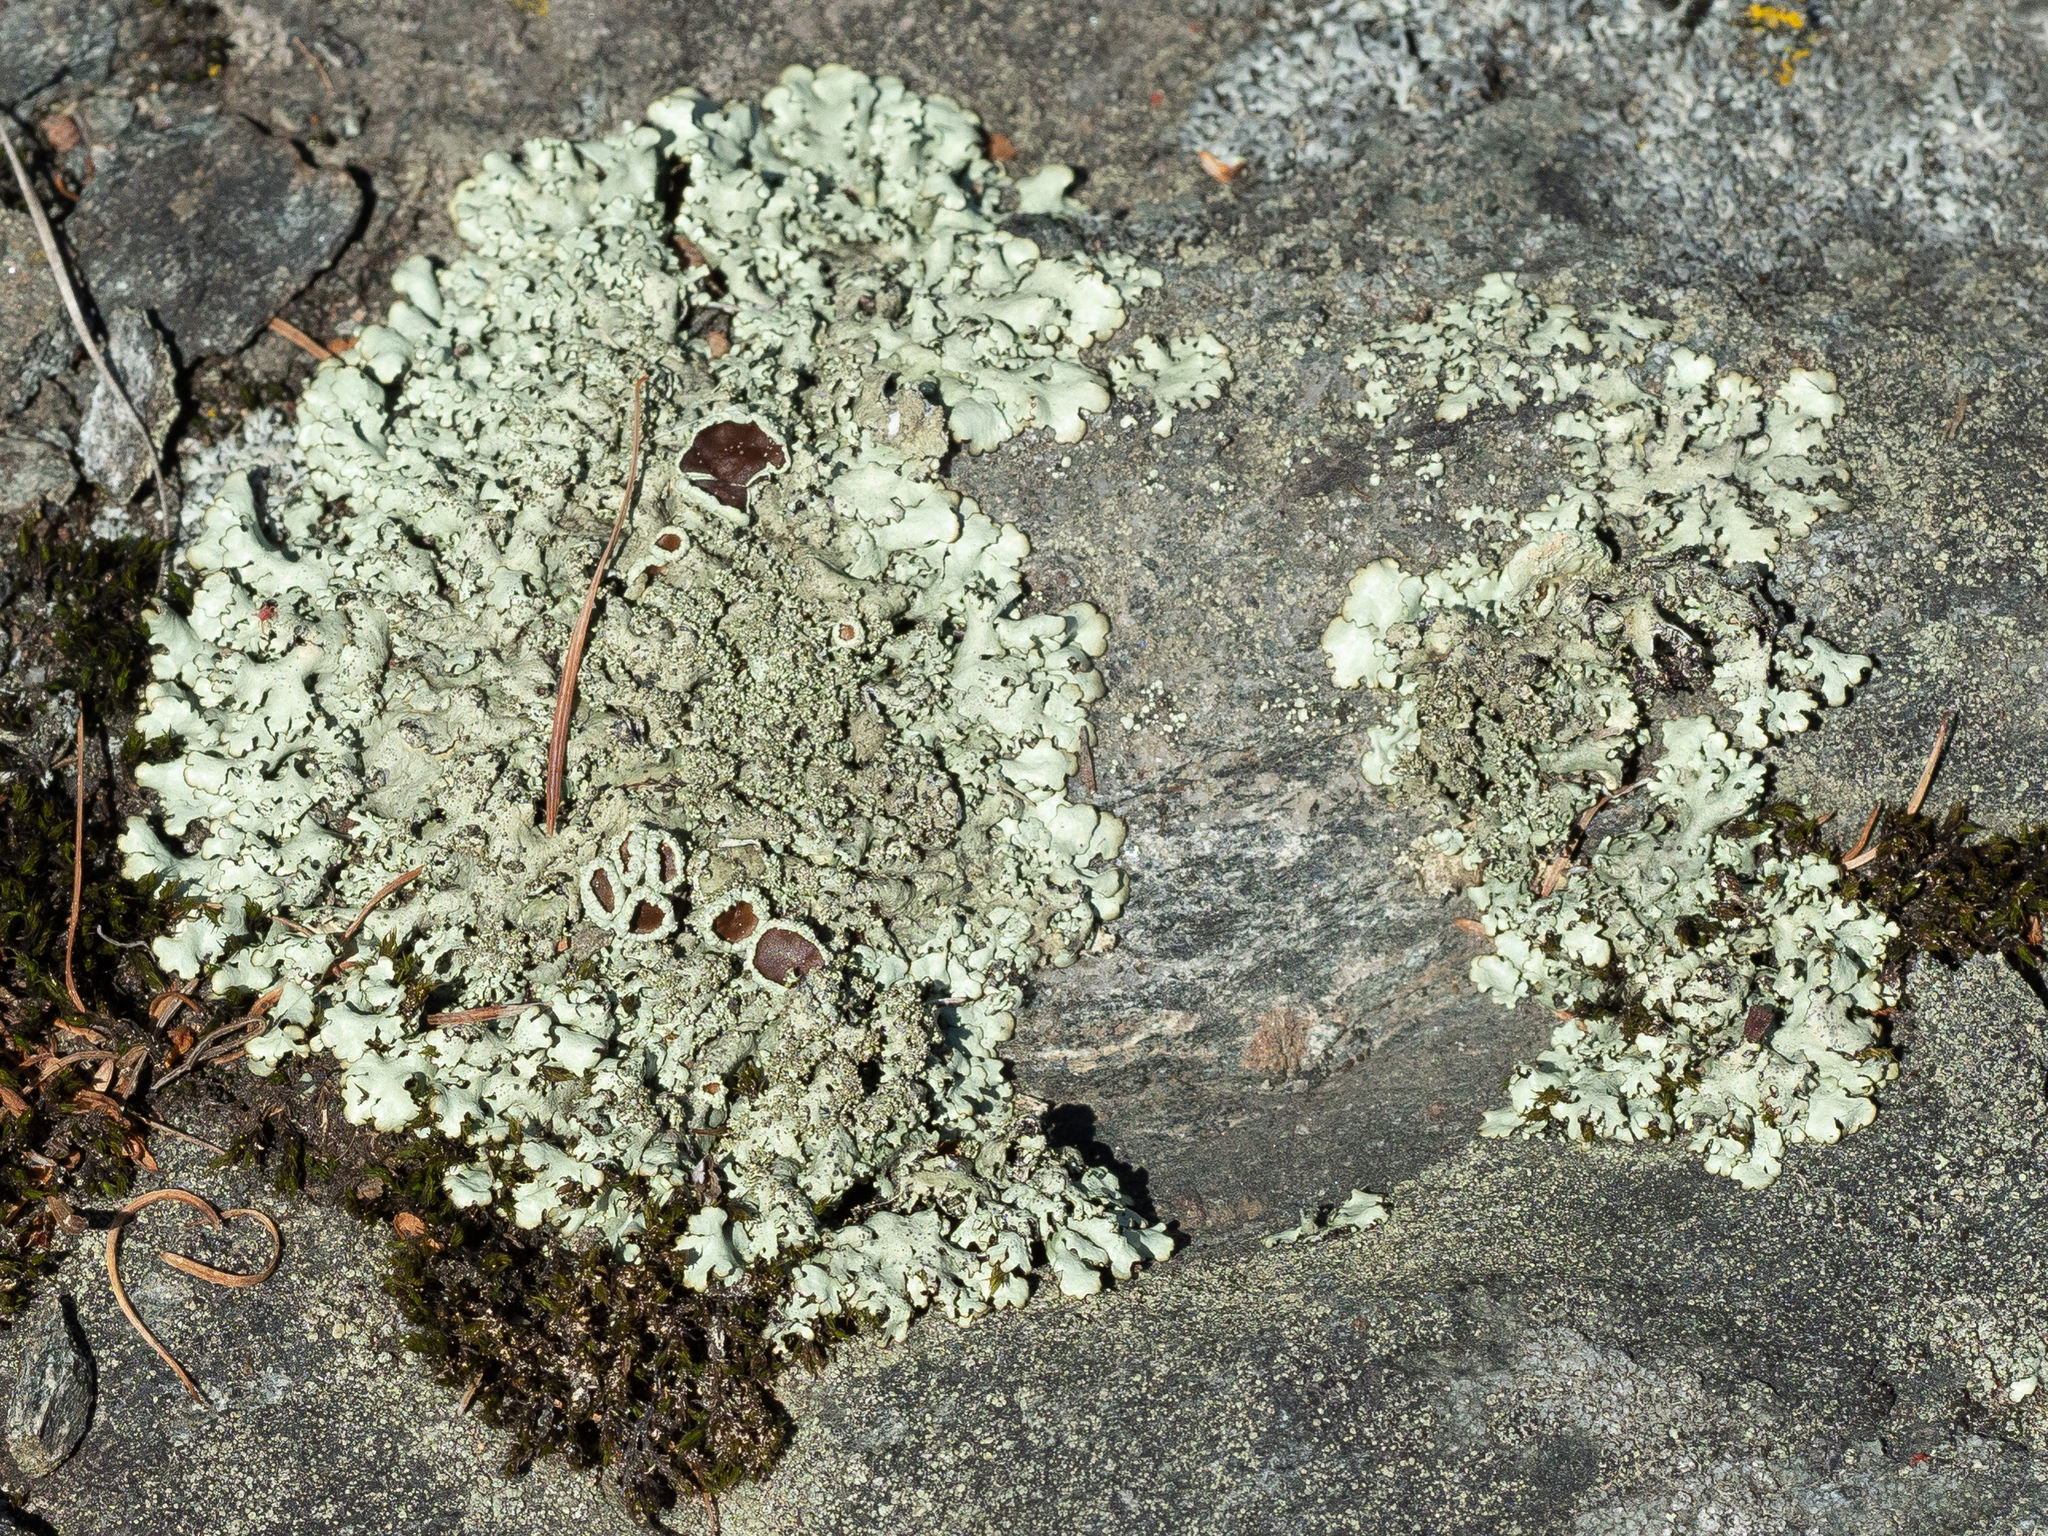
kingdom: Fungi
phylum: Ascomycota
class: Lecanoromycetes
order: Lecanorales
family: Parmeliaceae
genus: Xanthoparmelia
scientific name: Xanthoparmelia conspersa
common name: Peppered rock shield
